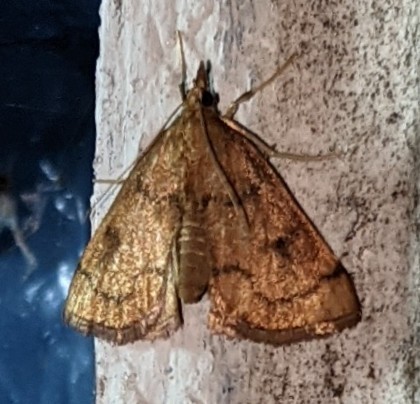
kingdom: Animalia
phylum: Arthropoda
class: Insecta
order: Lepidoptera
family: Crambidae
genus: Fumibotys
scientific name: Fumibotys fumalis
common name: Mint root borer moth
